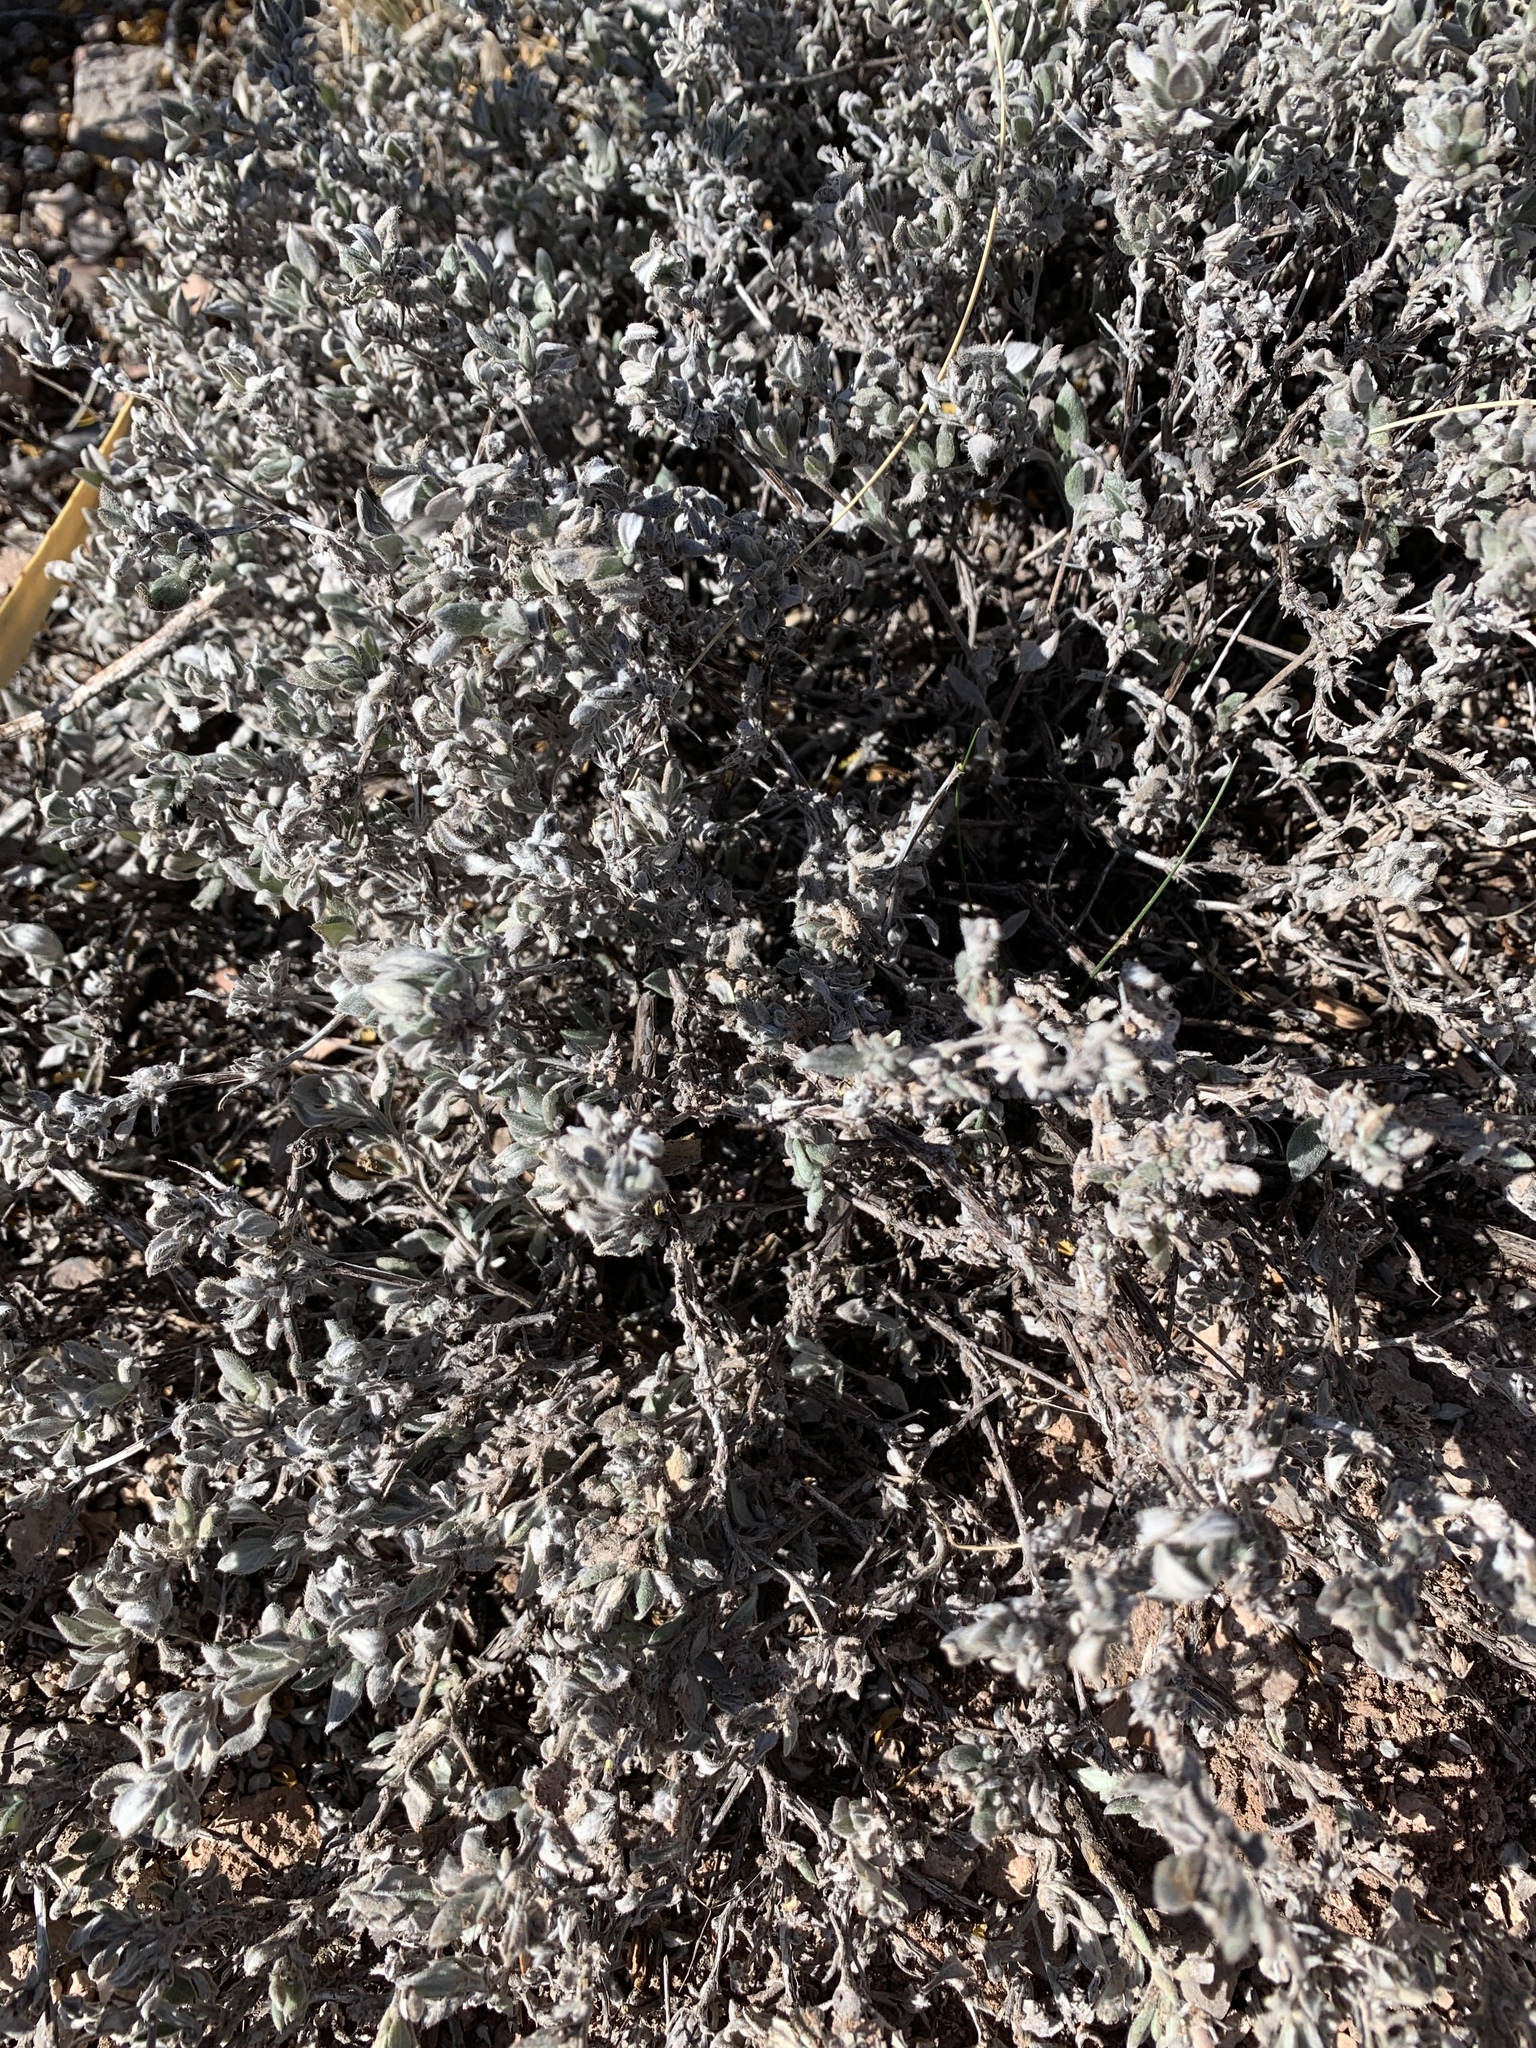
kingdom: Plantae
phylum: Tracheophyta
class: Magnoliopsida
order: Boraginales
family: Ehretiaceae
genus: Tiquilia
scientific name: Tiquilia canescens
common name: Hairy tiquilia
